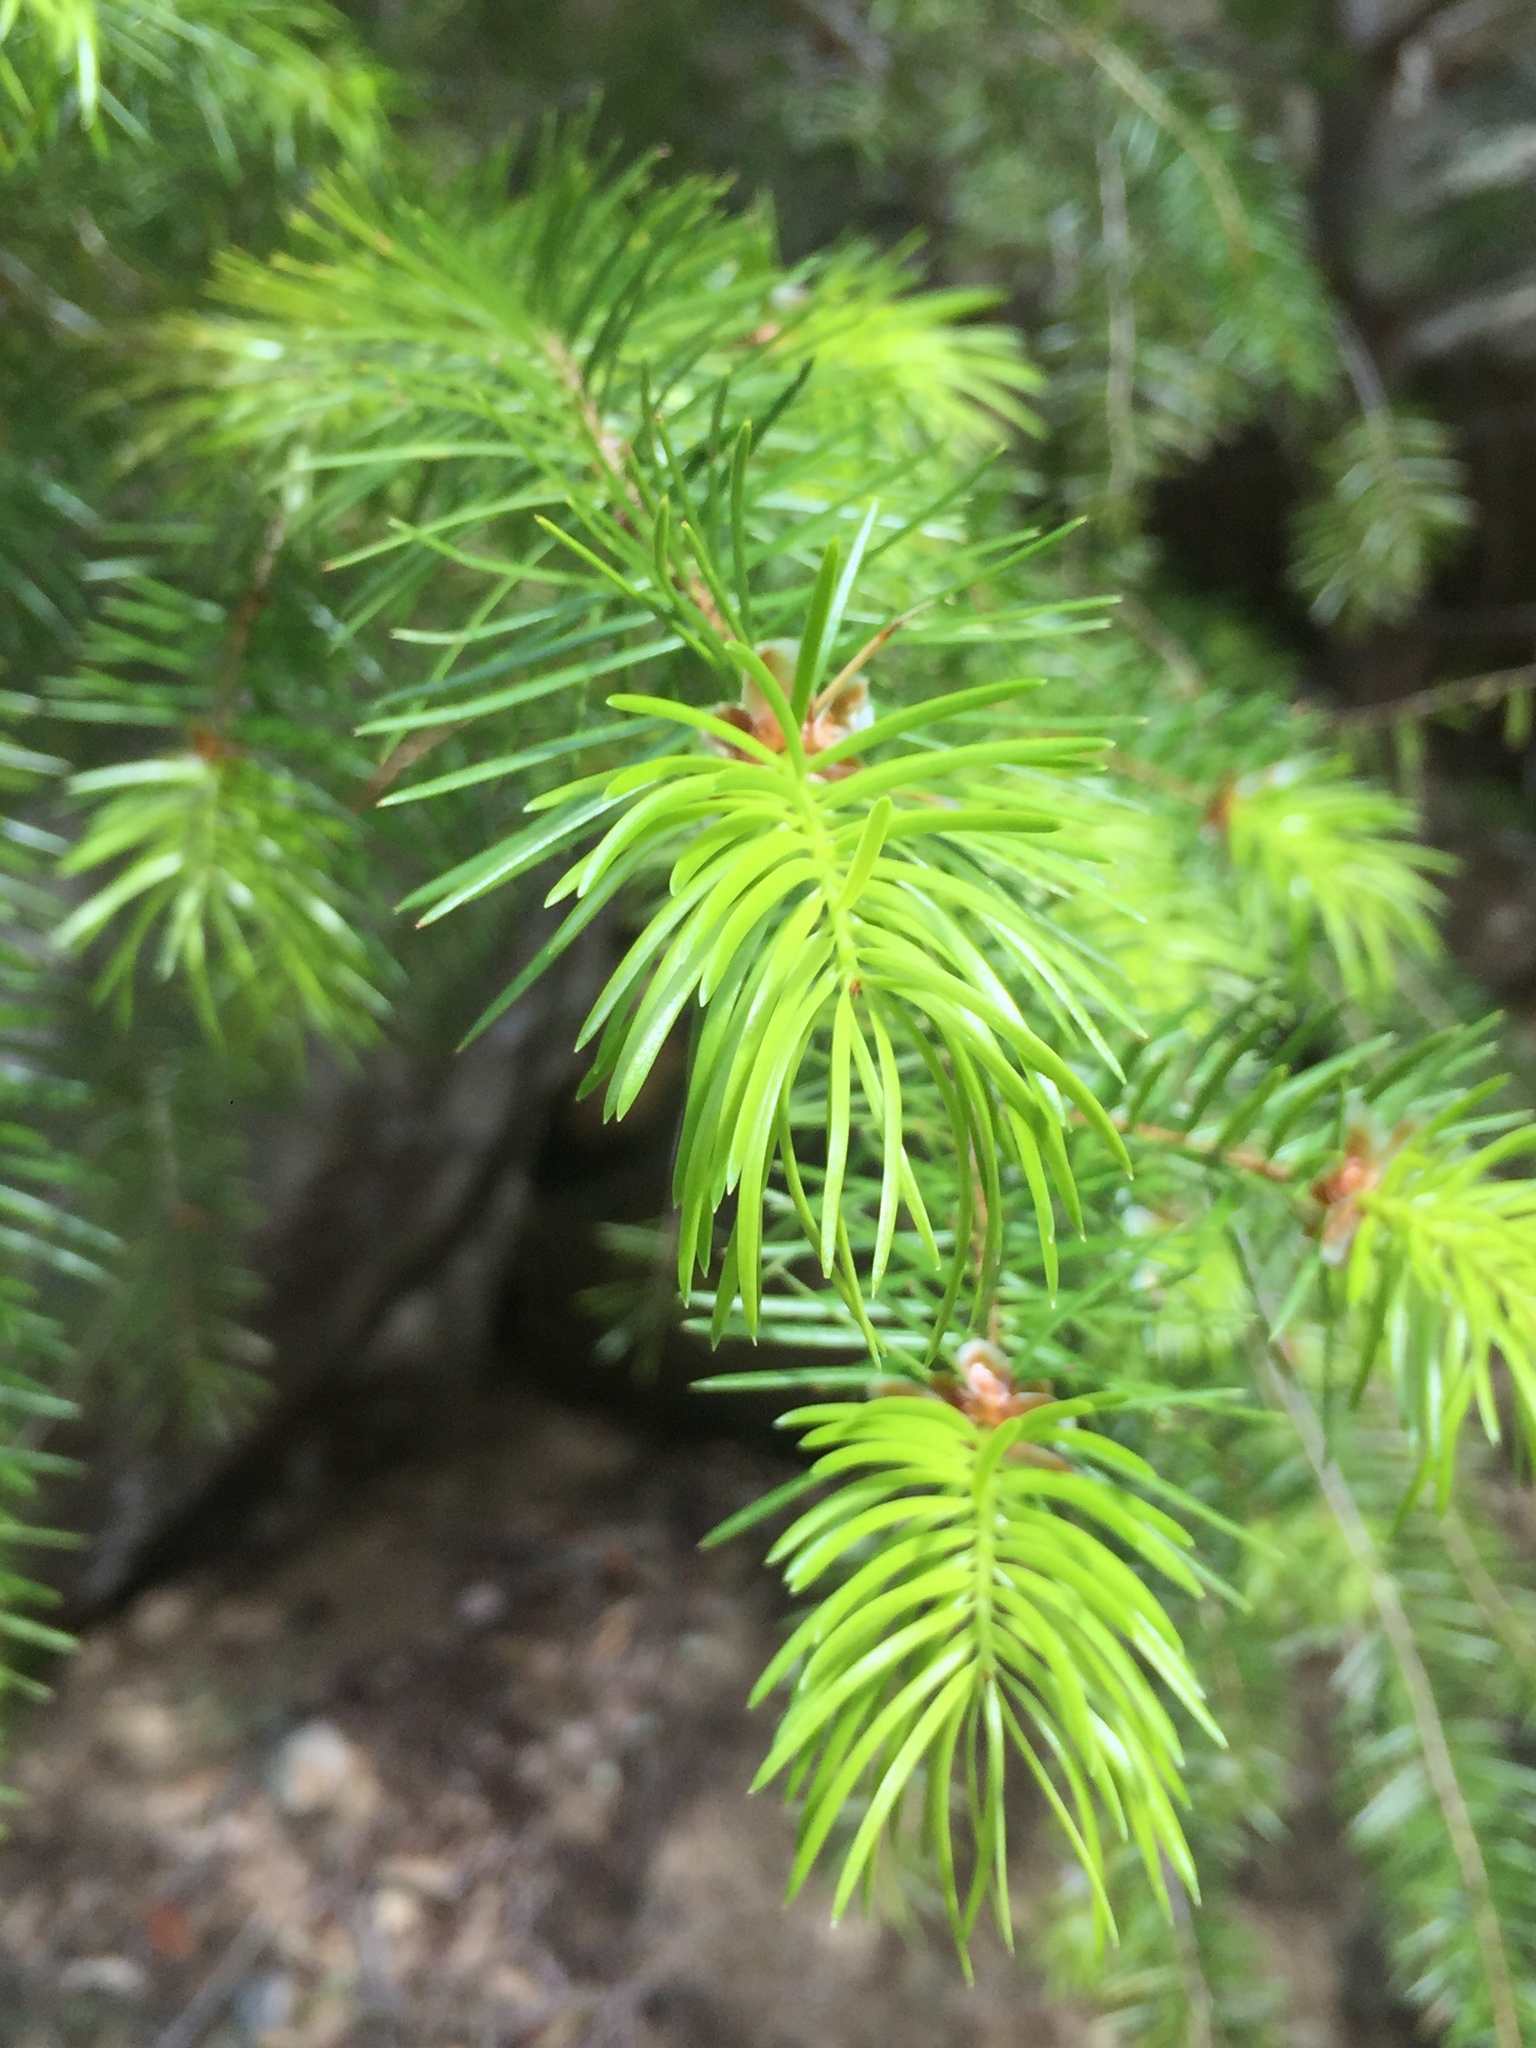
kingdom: Plantae
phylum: Tracheophyta
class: Pinopsida
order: Pinales
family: Pinaceae
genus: Pseudotsuga
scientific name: Pseudotsuga macrocarpa
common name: Big-cone douglas-fir
